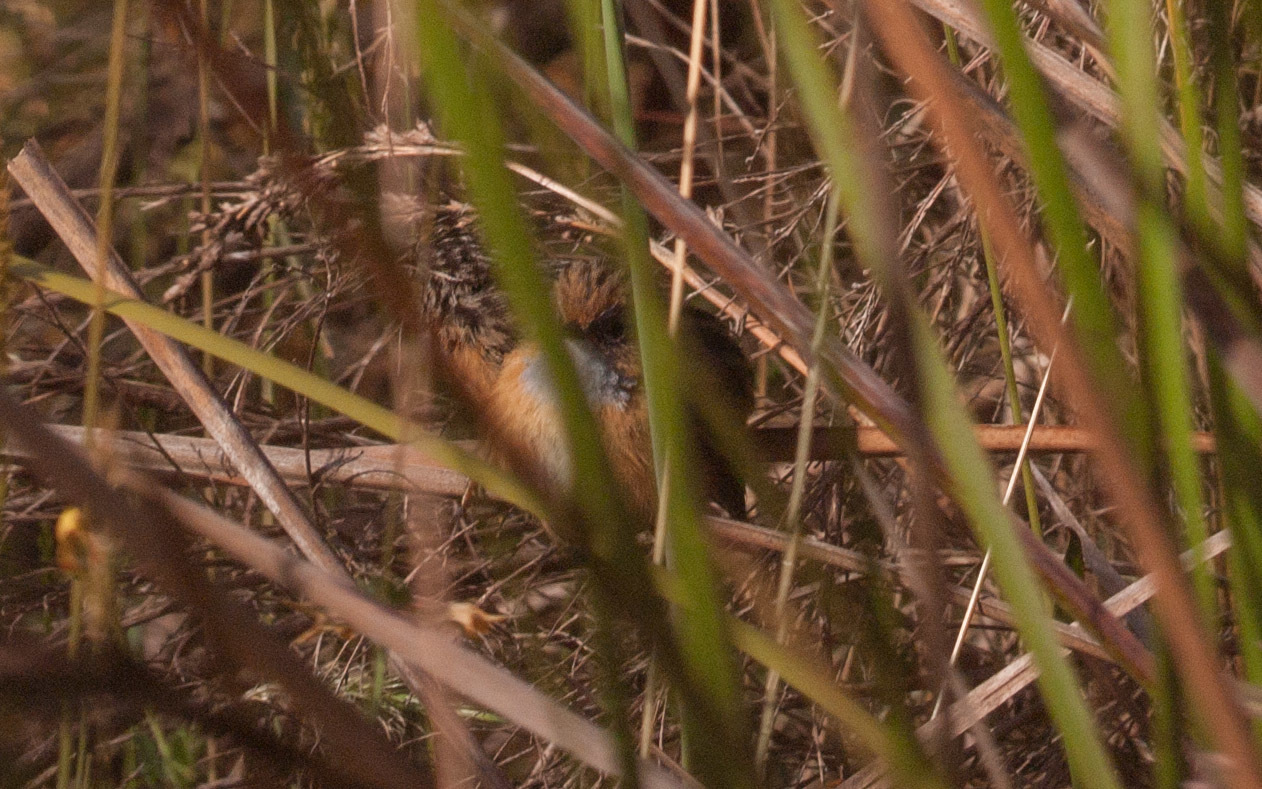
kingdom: Animalia
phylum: Chordata
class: Aves
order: Passeriformes
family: Maluridae
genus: Stipiturus
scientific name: Stipiturus malachurus
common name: Southern emu-wren
